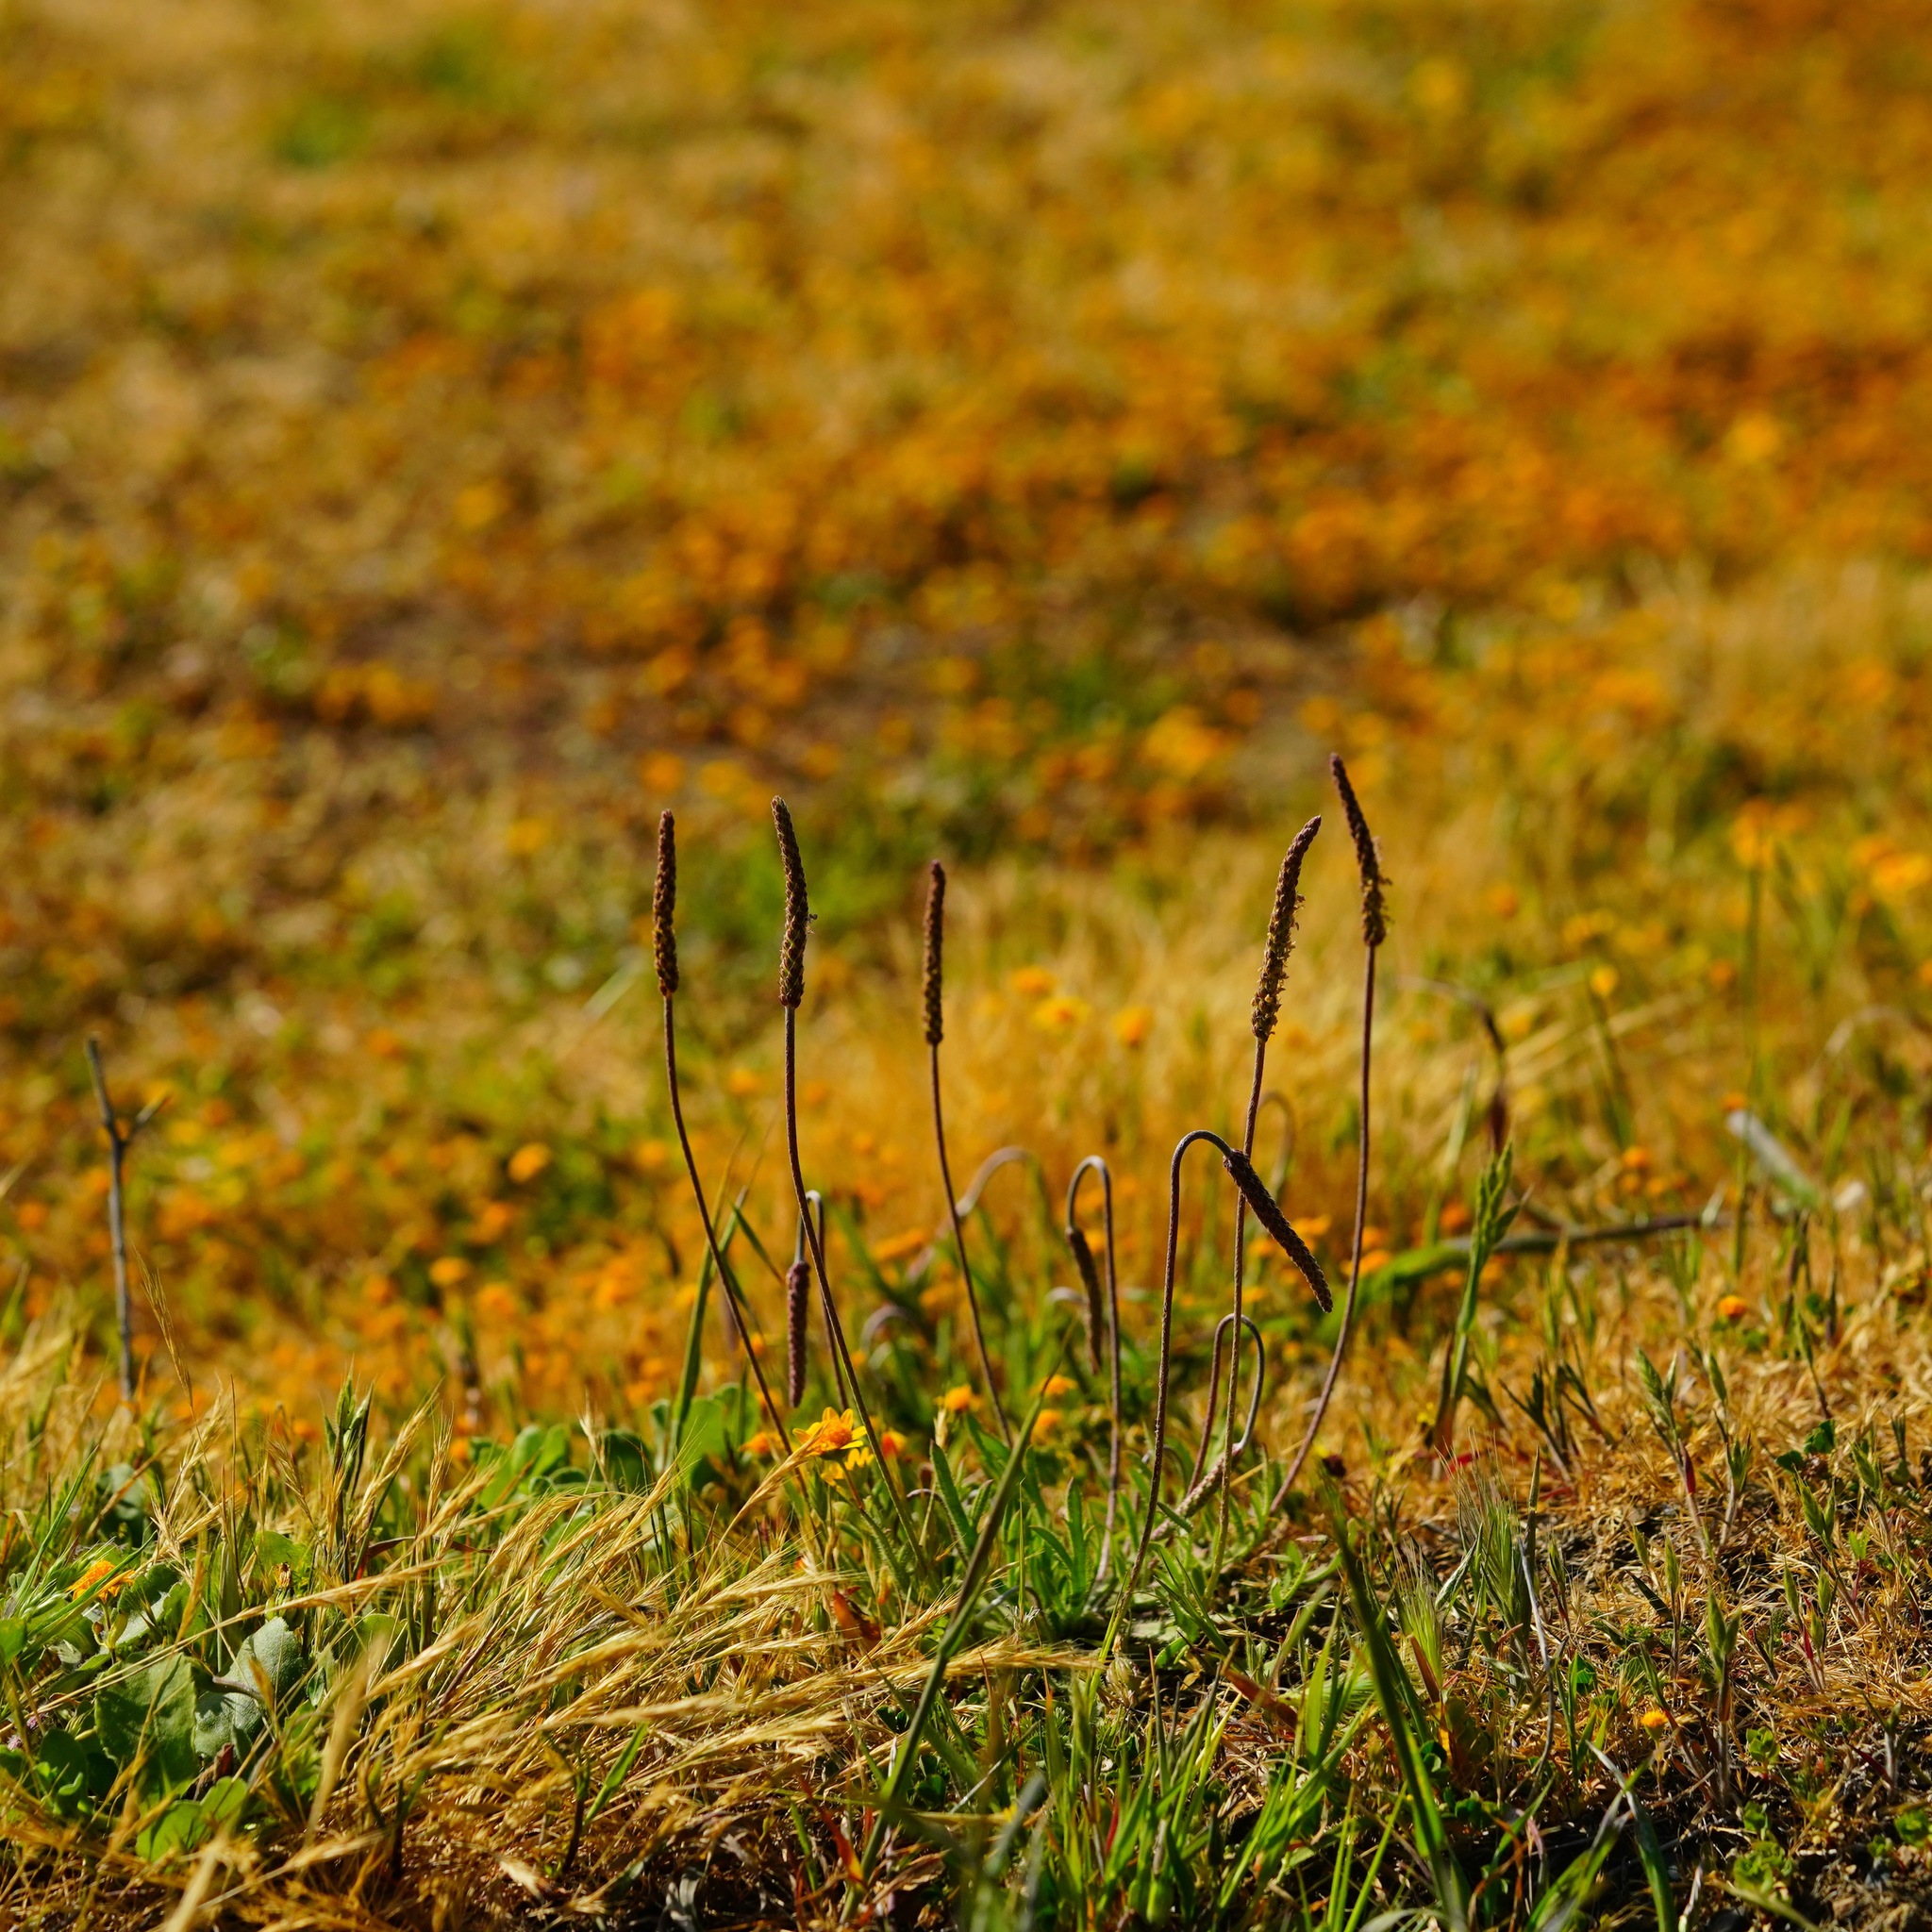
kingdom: Plantae
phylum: Tracheophyta
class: Magnoliopsida
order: Lamiales
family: Plantaginaceae
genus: Plantago
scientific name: Plantago coronopus
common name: Buck's-horn plantain
